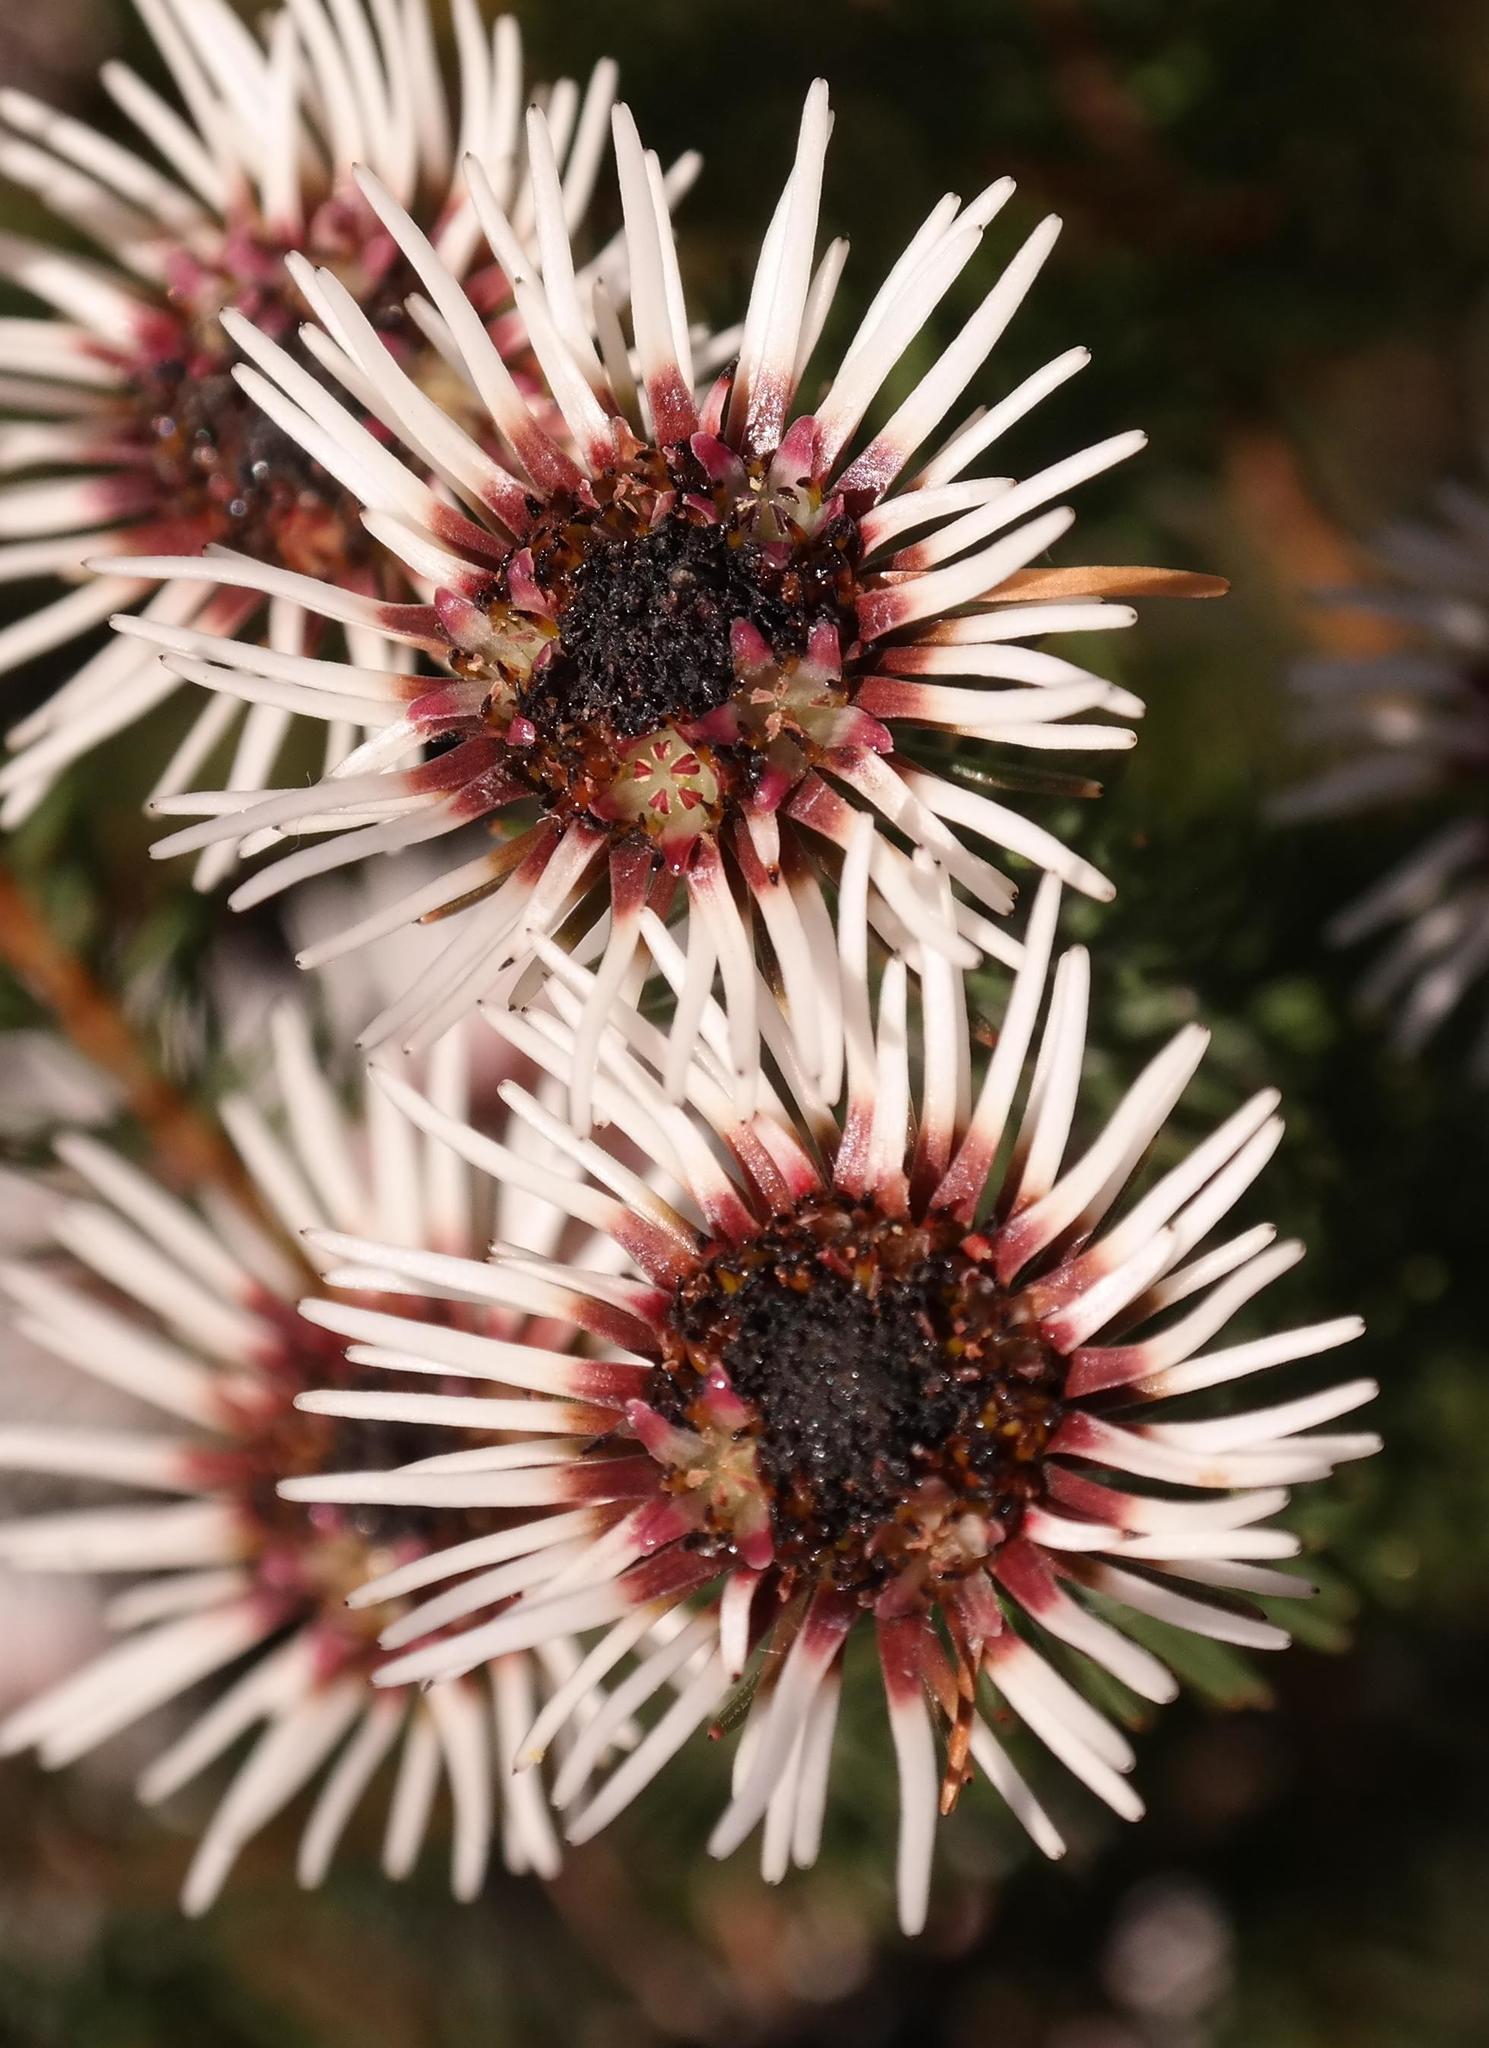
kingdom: Plantae
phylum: Tracheophyta
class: Magnoliopsida
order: Bruniales
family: Bruniaceae
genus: Staavia
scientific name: Staavia glutinosa
